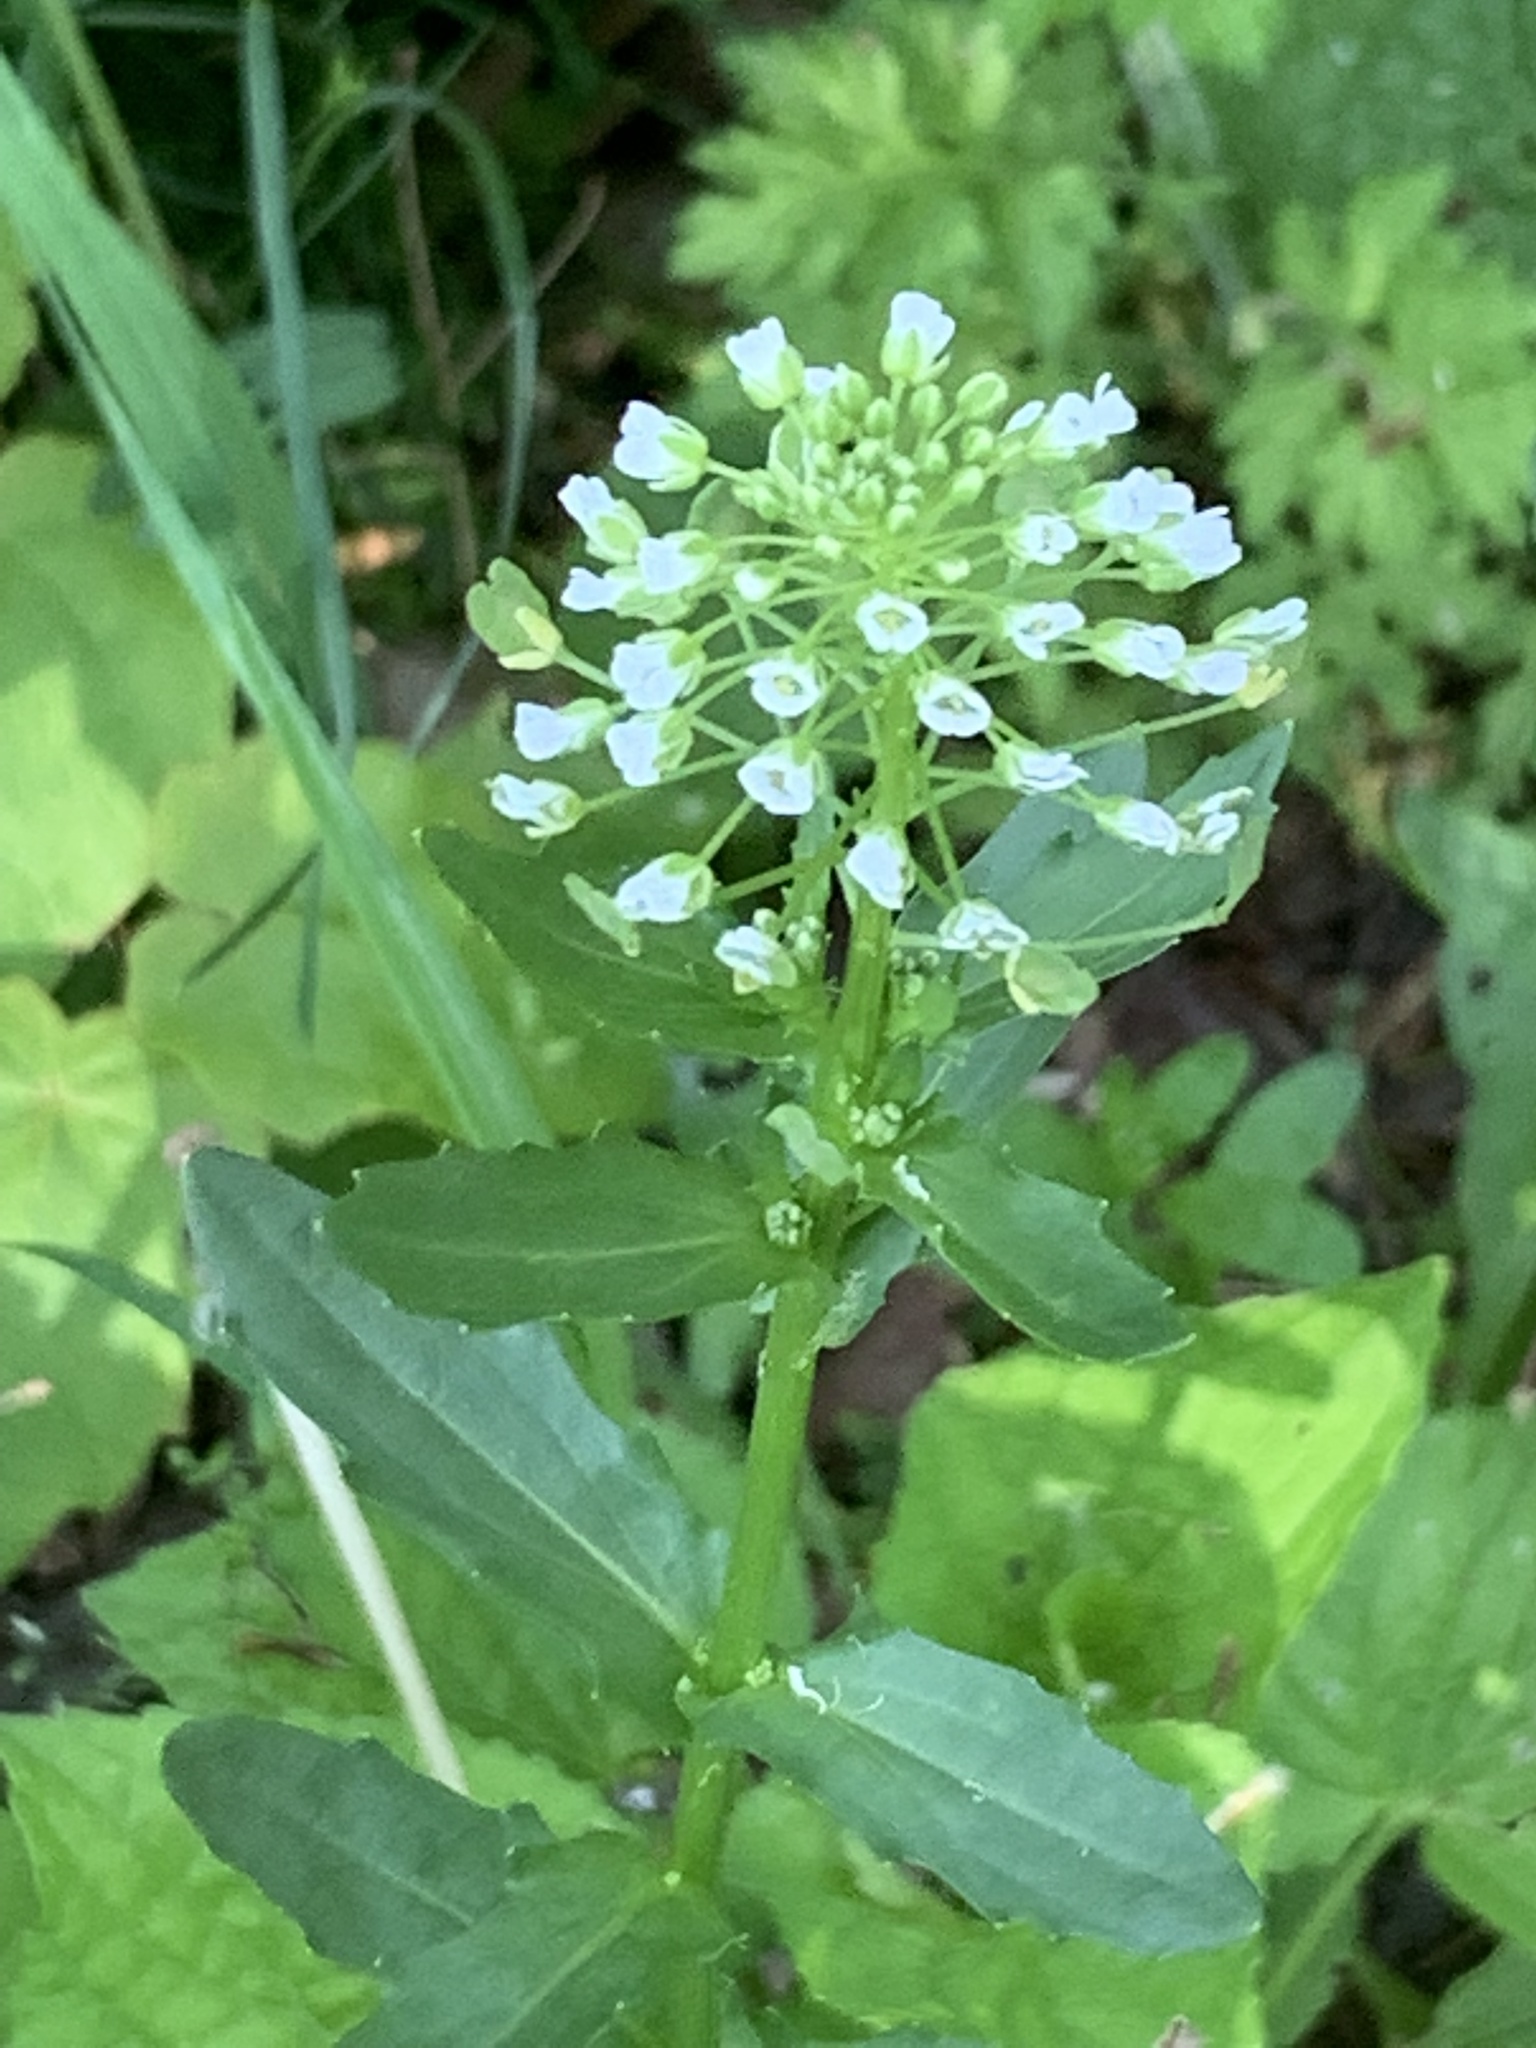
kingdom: Plantae
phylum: Tracheophyta
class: Magnoliopsida
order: Brassicales
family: Brassicaceae
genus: Thlaspi
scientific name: Thlaspi arvense
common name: Field pennycress
